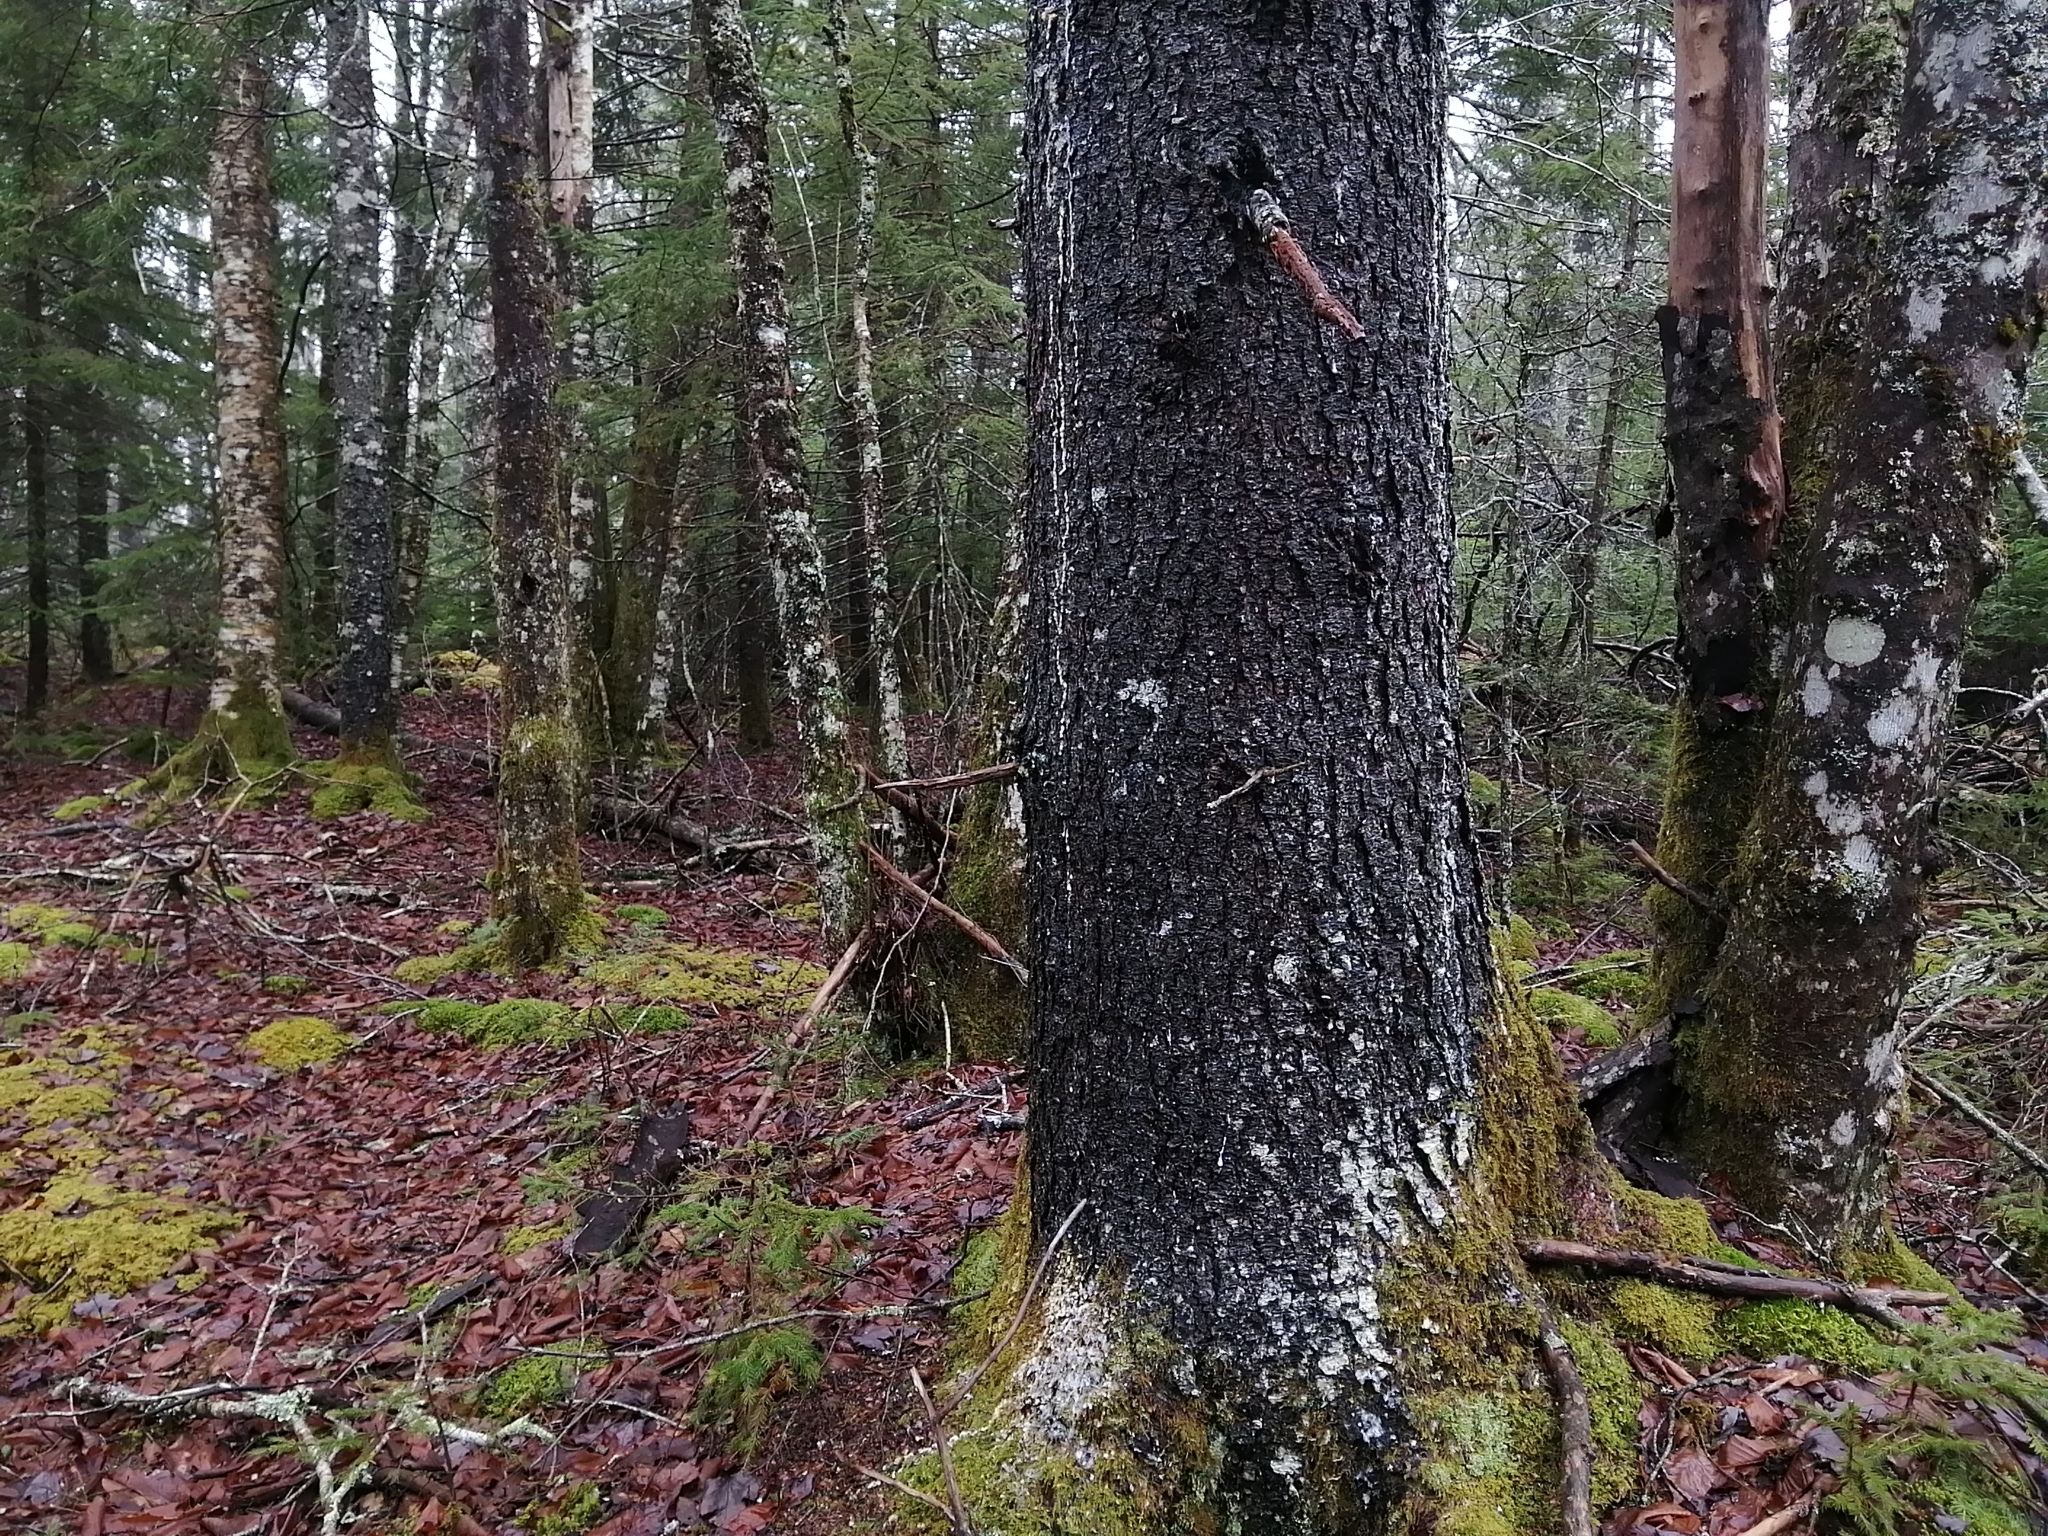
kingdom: Plantae
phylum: Tracheophyta
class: Pinopsida
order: Pinales
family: Pinaceae
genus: Picea
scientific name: Picea rubens
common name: Red spruce
